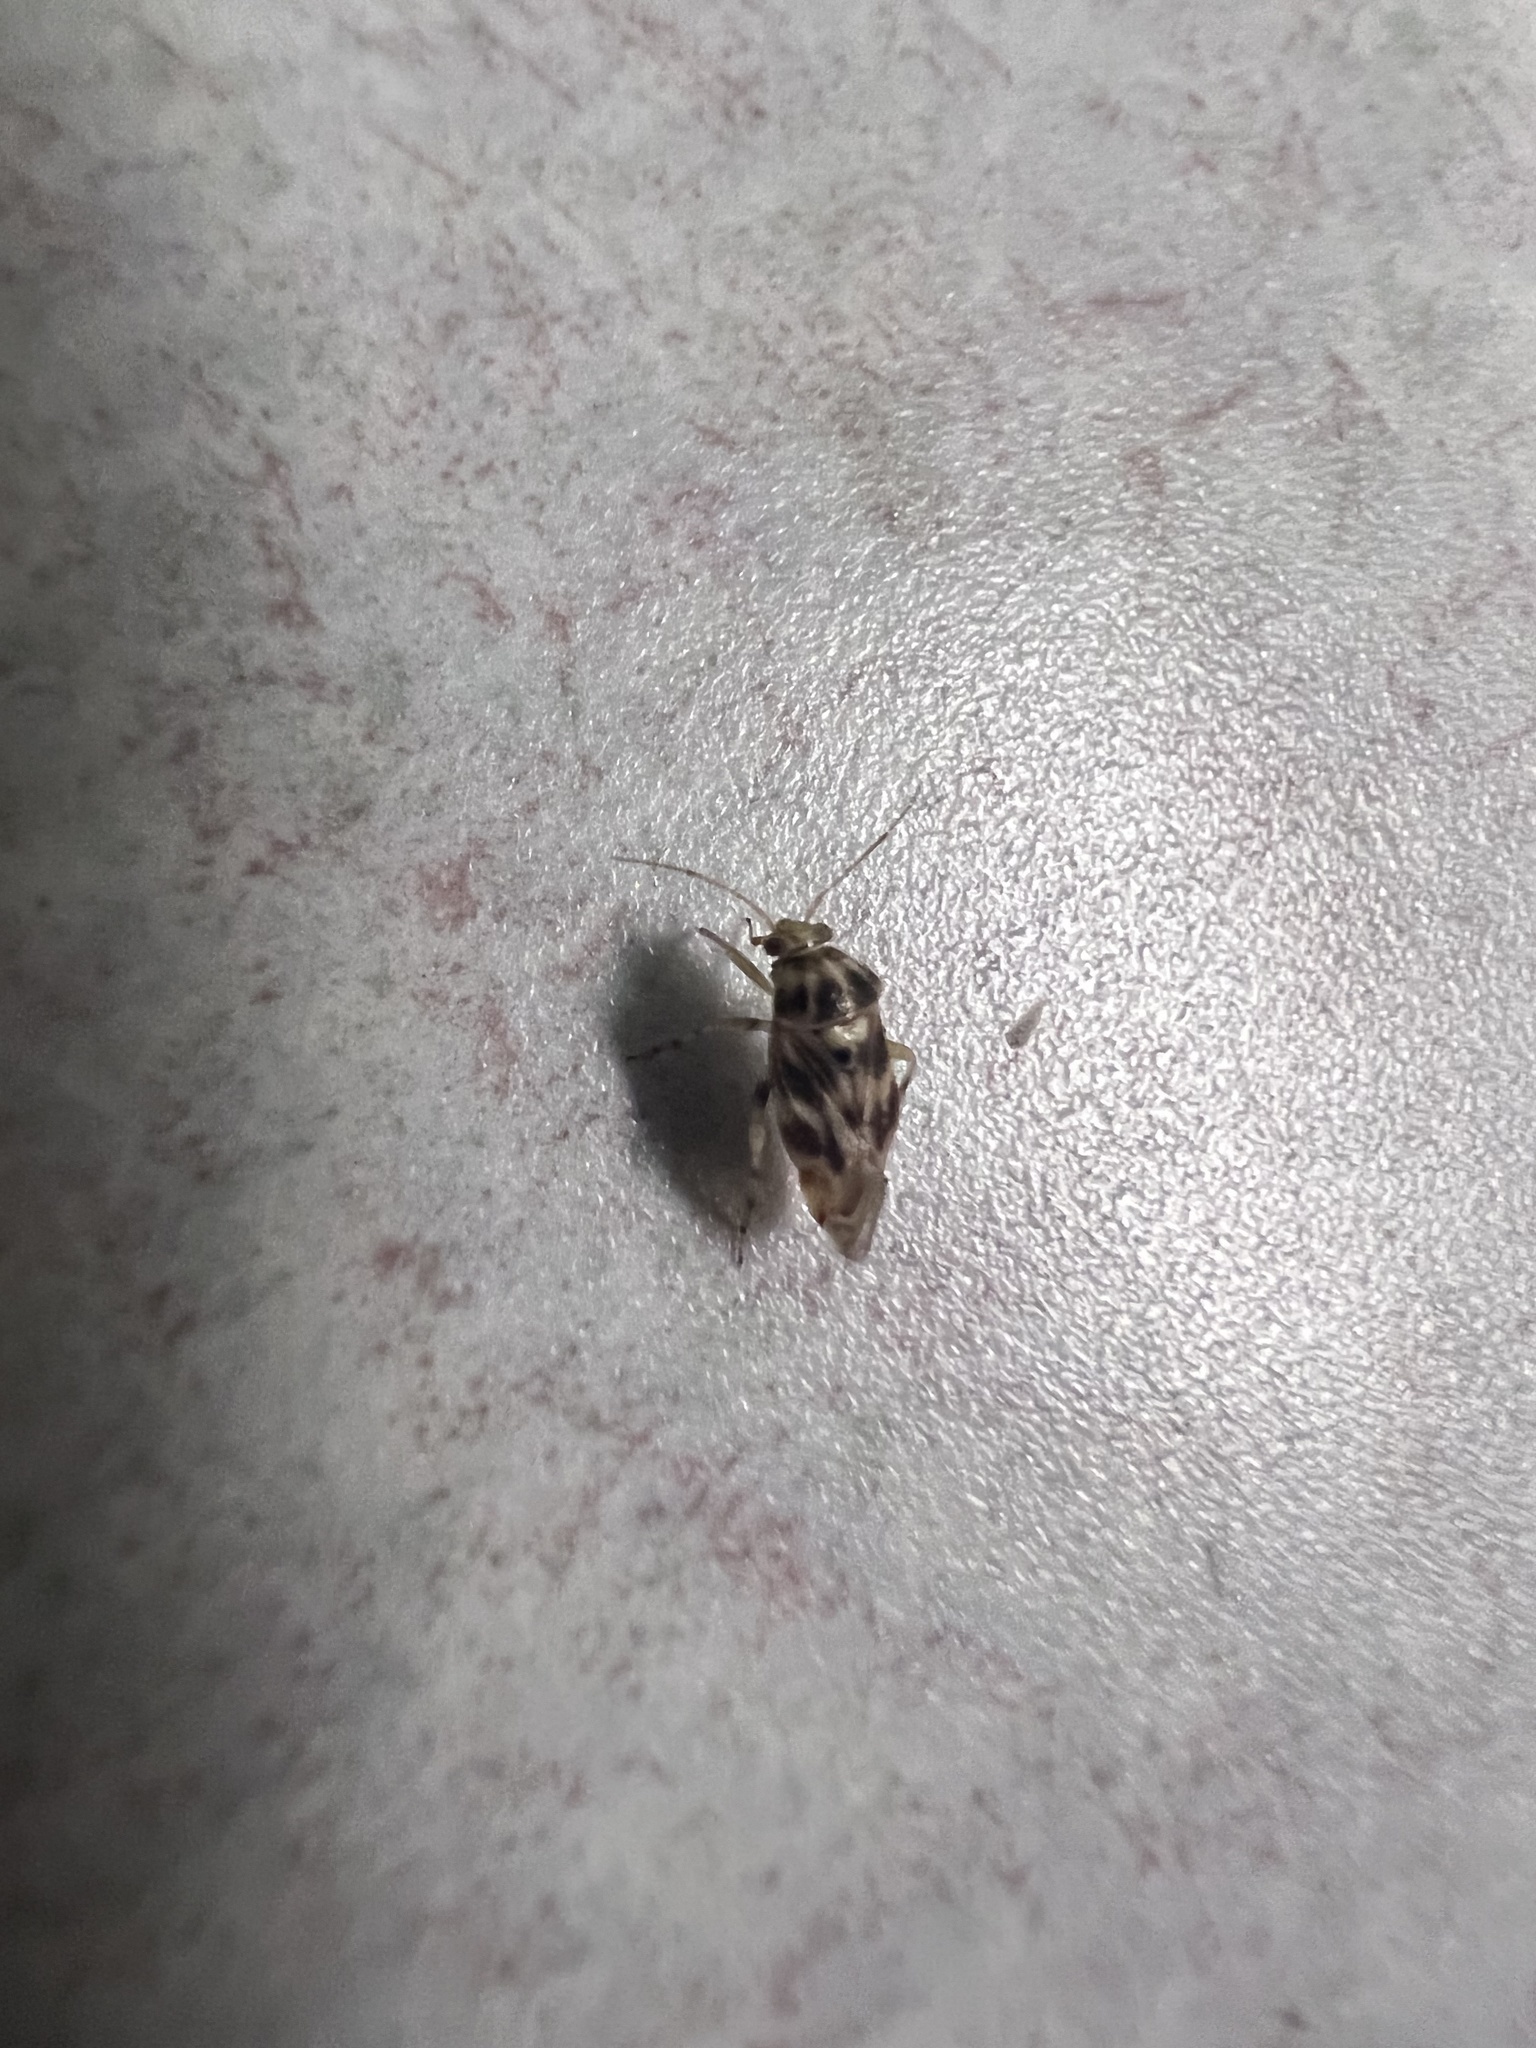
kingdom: Animalia
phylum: Arthropoda
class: Insecta
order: Hemiptera
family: Miridae
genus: Tropidosteptes
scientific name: Tropidosteptes quercicola
